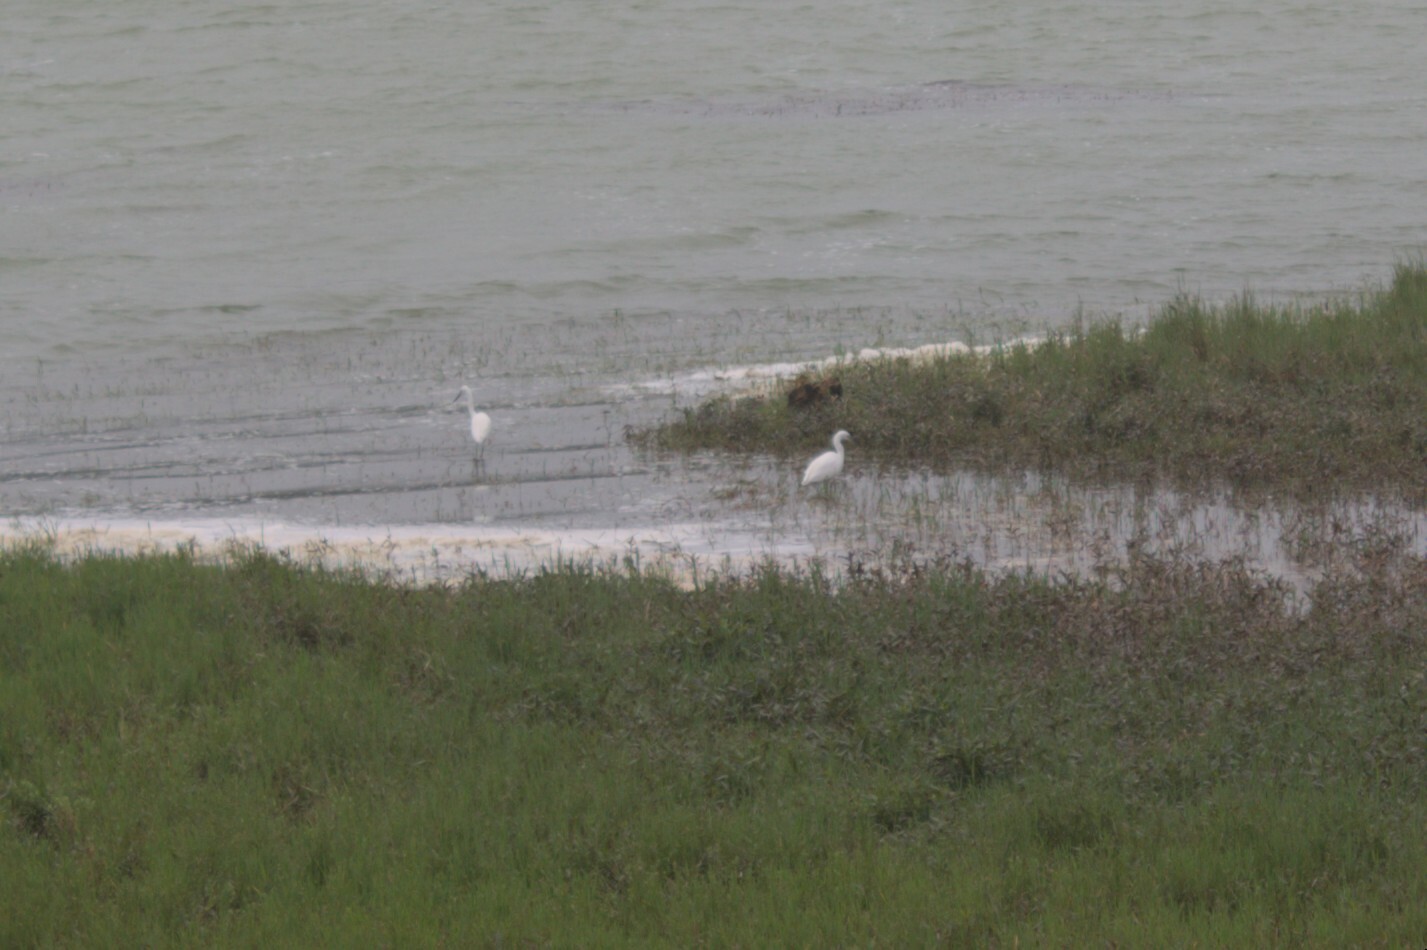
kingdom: Animalia
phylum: Chordata
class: Aves
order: Pelecaniformes
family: Ardeidae
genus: Egretta
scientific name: Egretta garzetta
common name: Little egret
